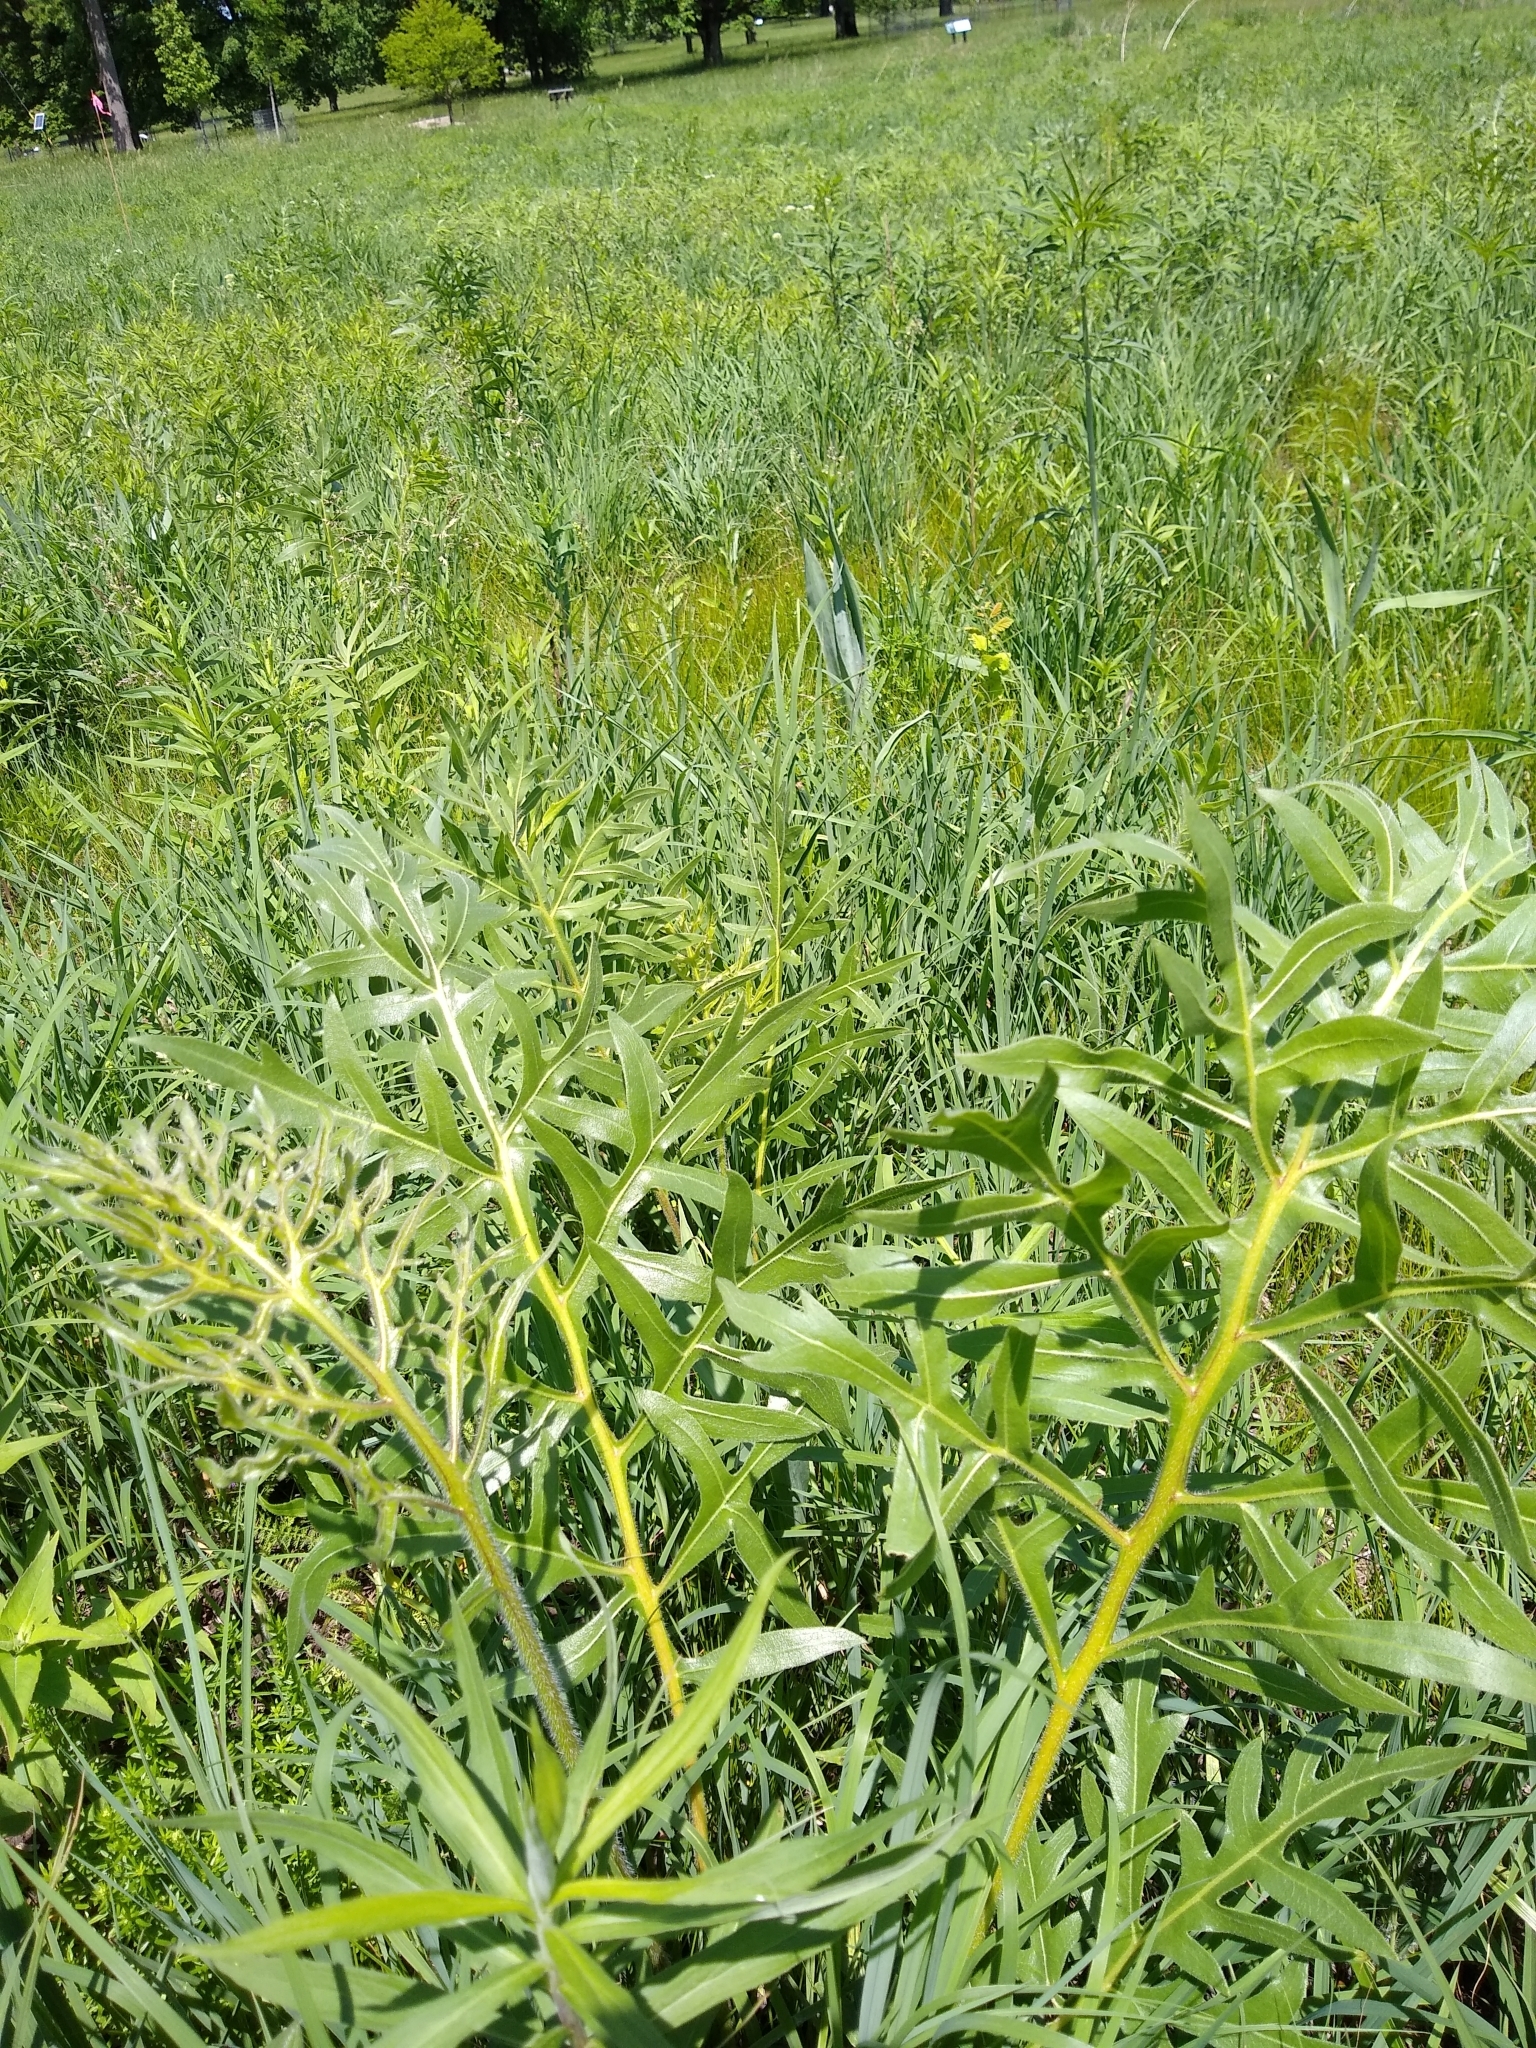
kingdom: Plantae
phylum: Tracheophyta
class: Magnoliopsida
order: Asterales
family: Asteraceae
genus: Silphium
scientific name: Silphium laciniatum
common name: Polarplant
